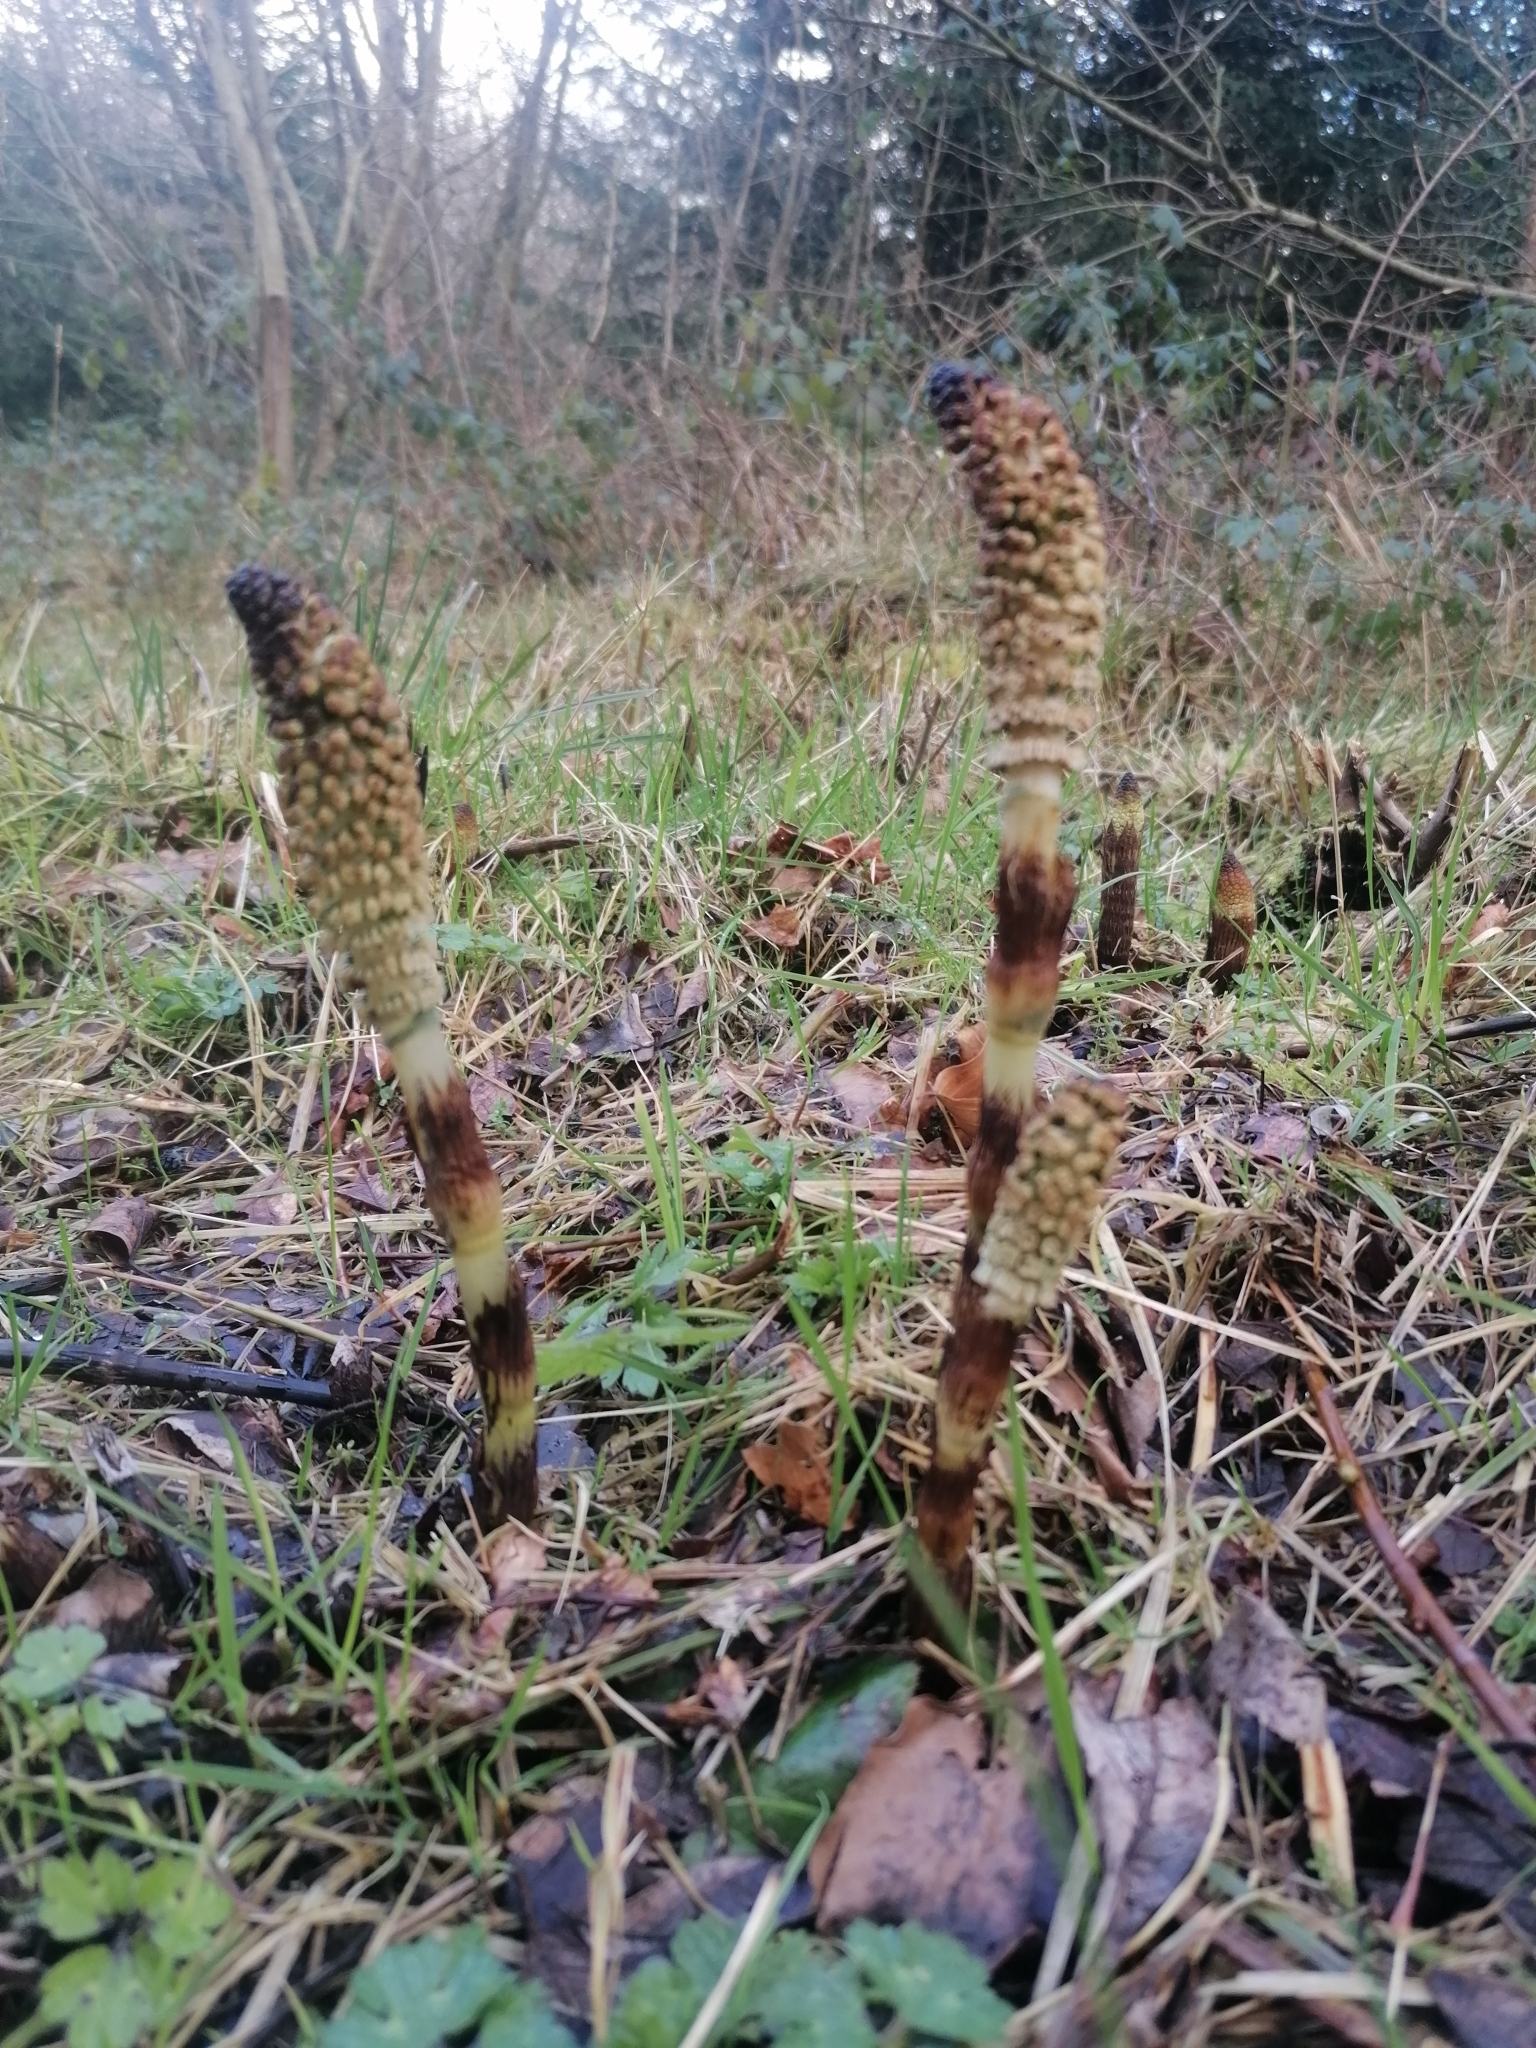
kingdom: Plantae
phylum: Tracheophyta
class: Polypodiopsida
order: Equisetales
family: Equisetaceae
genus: Equisetum
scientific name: Equisetum telmateia
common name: Great horsetail
